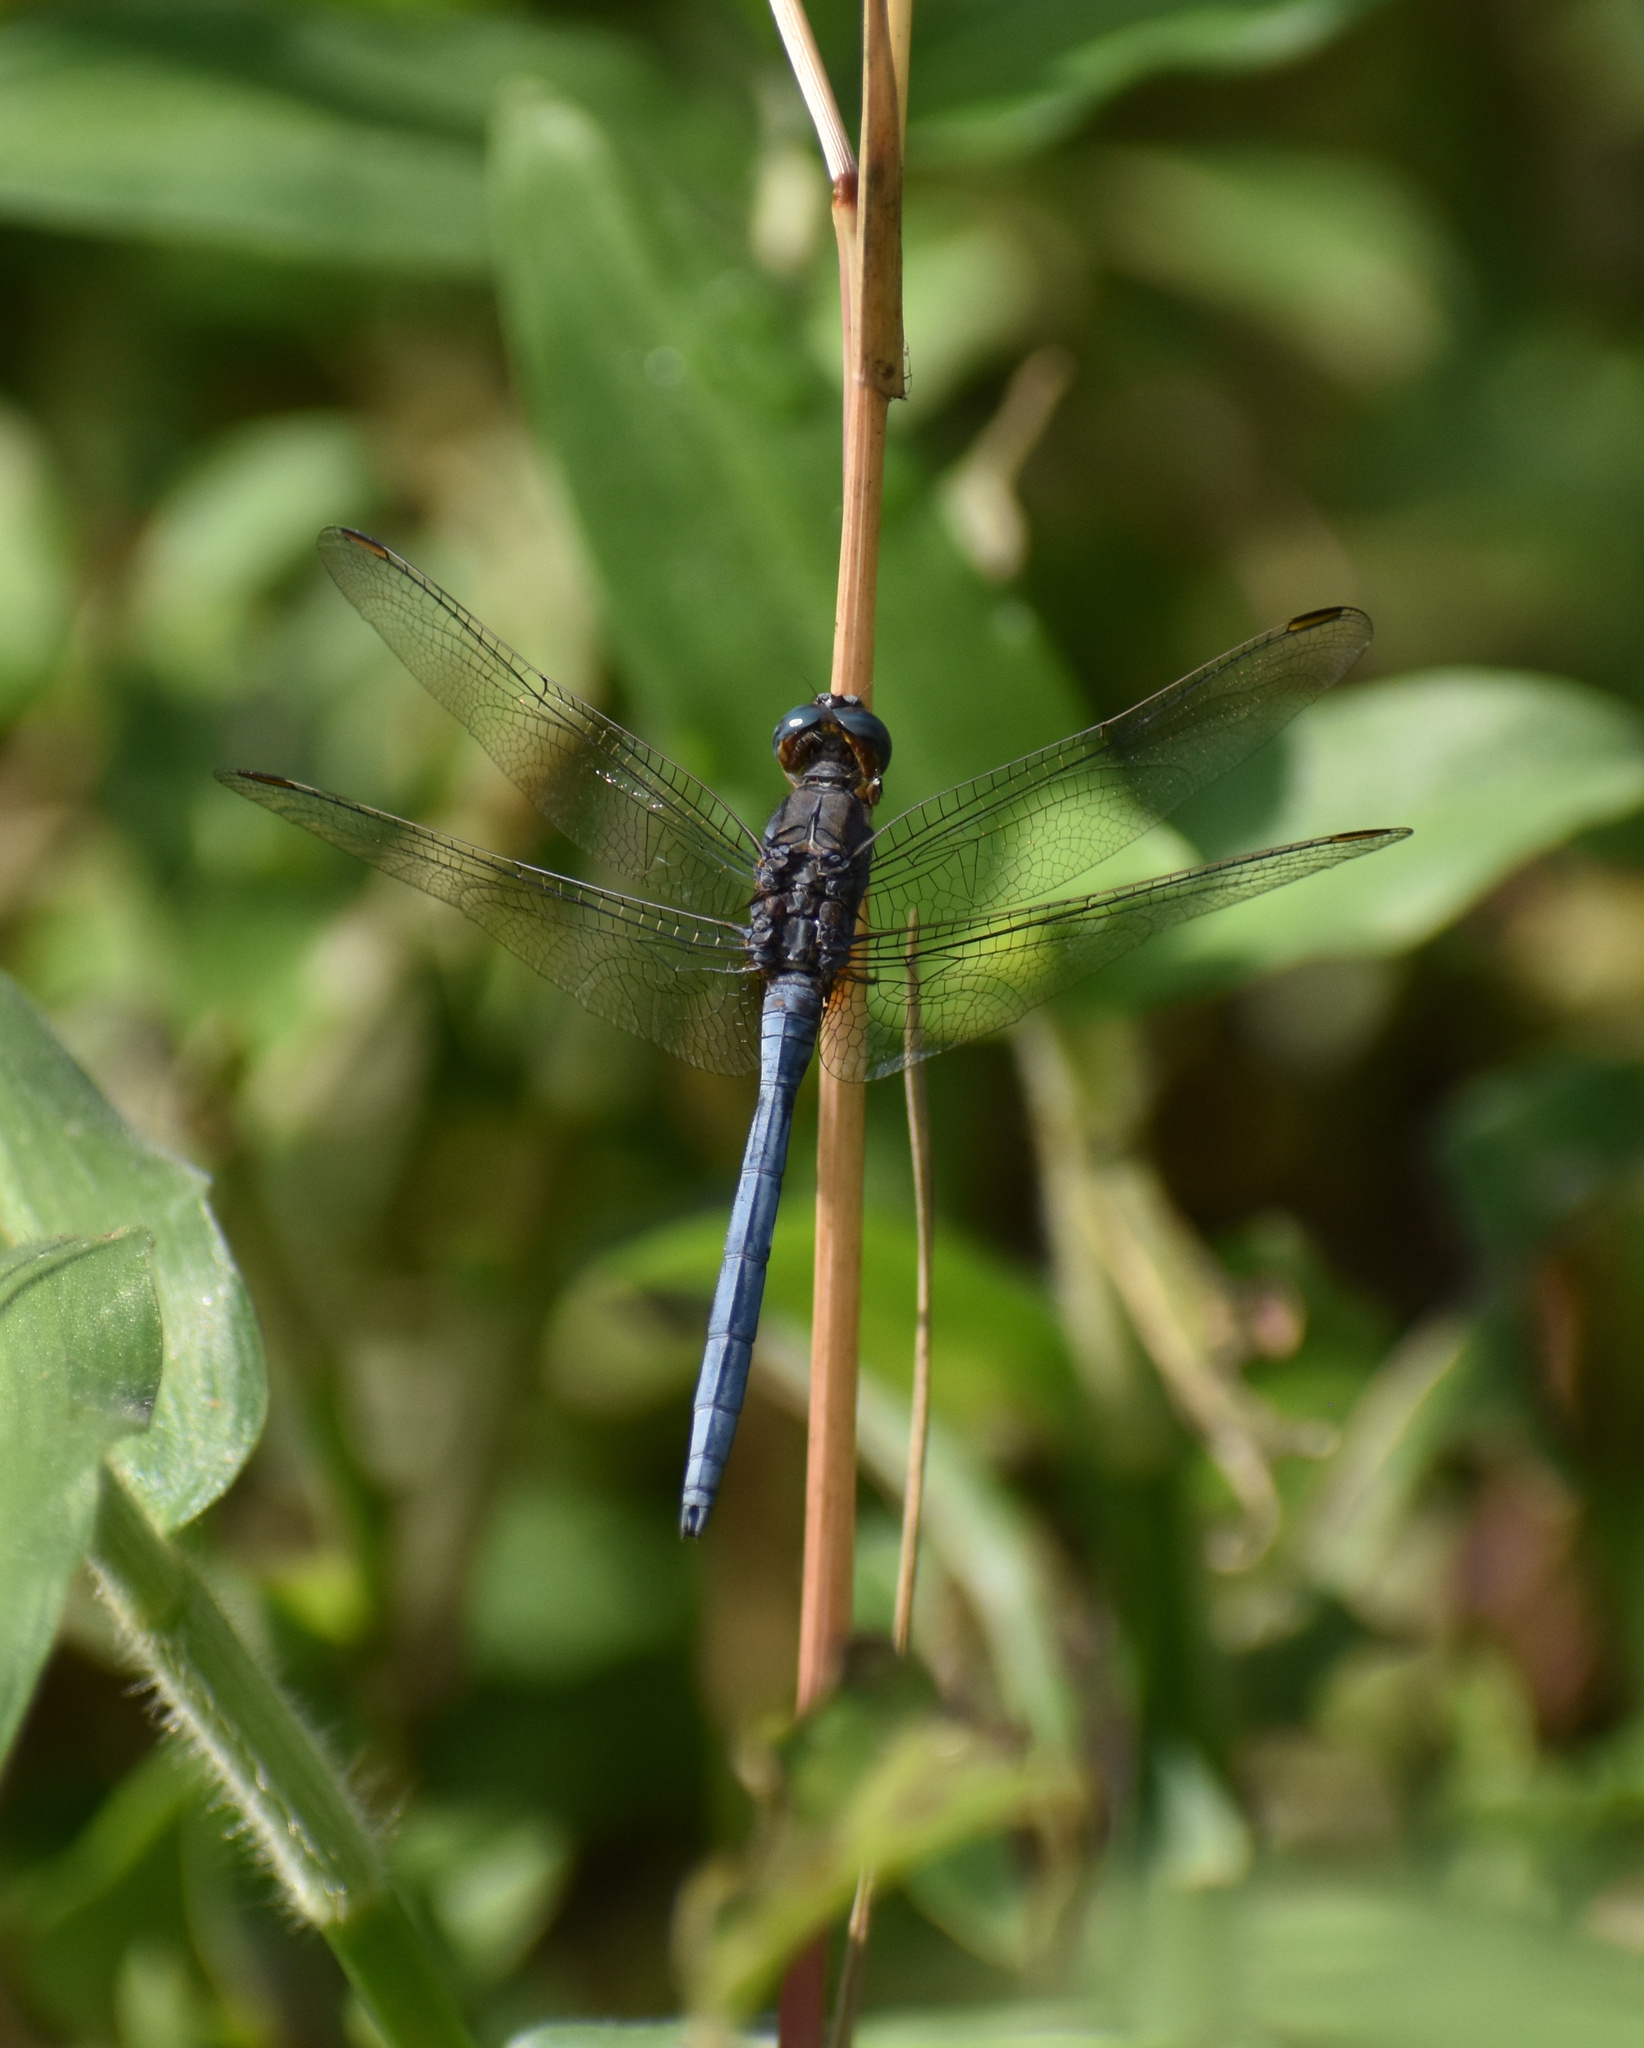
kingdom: Animalia
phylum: Arthropoda
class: Insecta
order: Odonata
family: Libellulidae
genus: Orthetrum
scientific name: Orthetrum julia
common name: Julia skimmer
